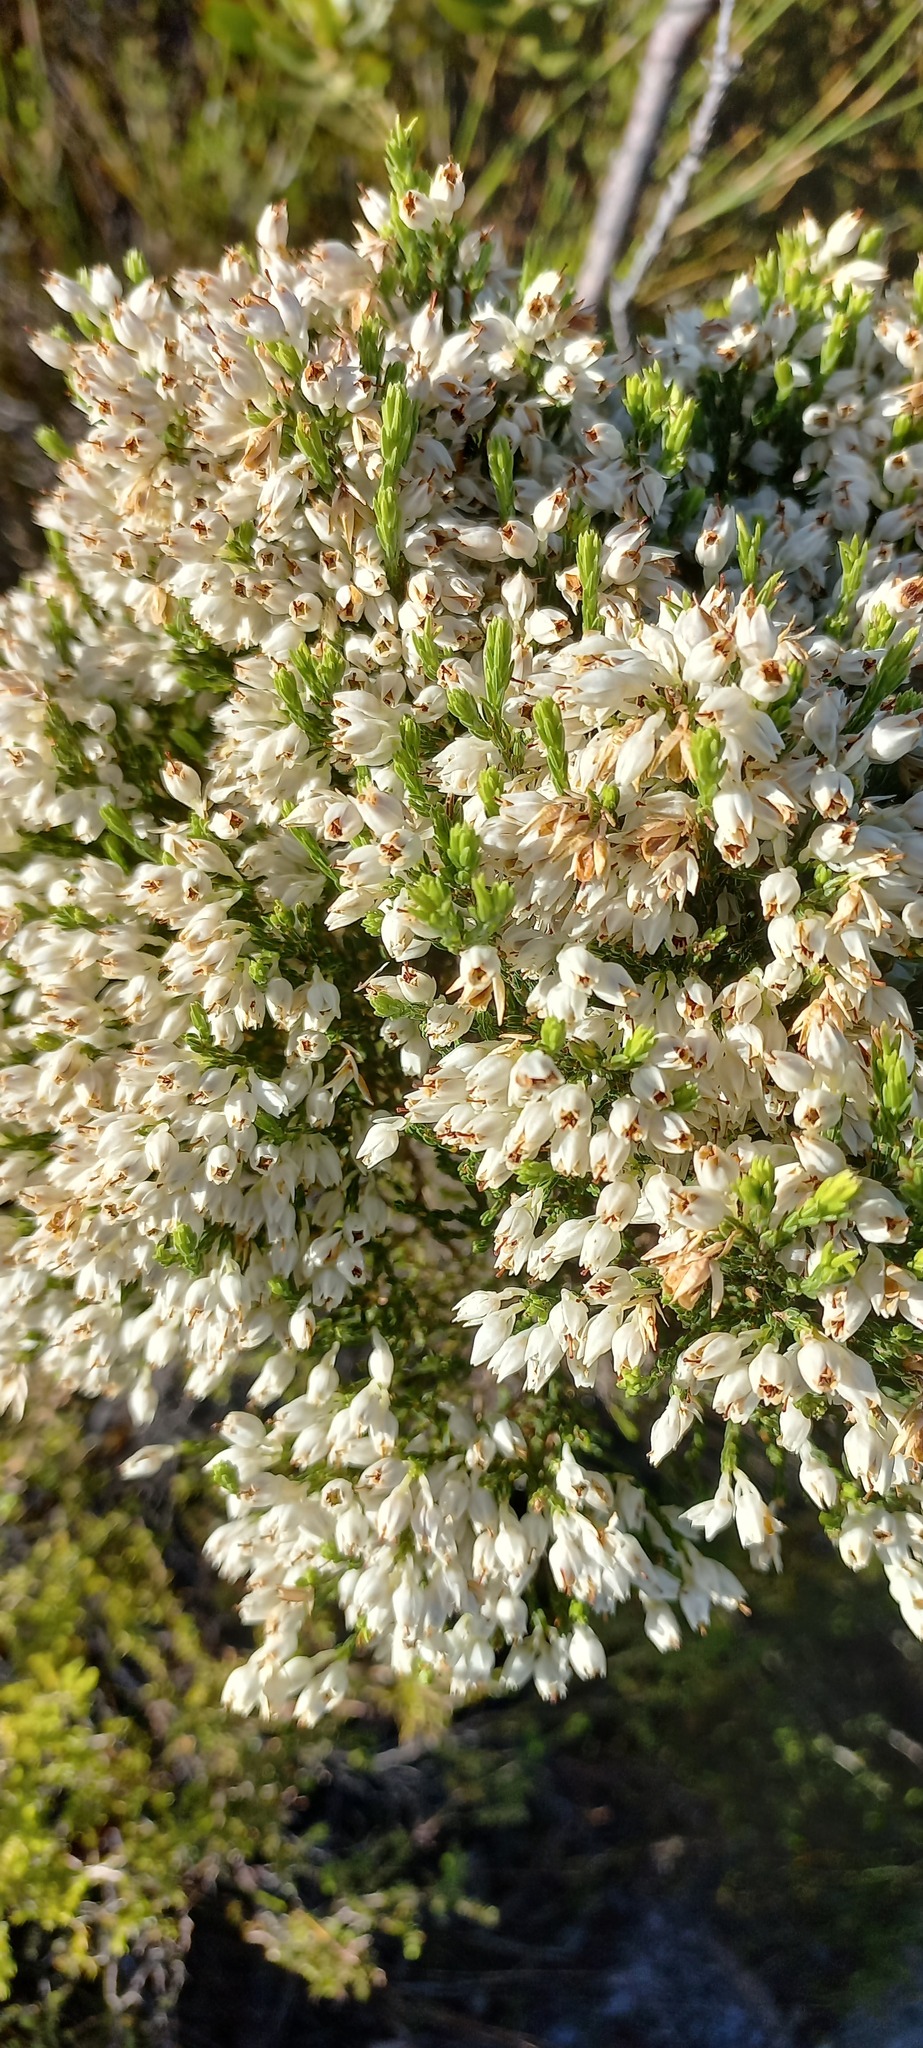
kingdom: Plantae
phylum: Tracheophyta
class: Magnoliopsida
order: Ericales
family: Ericaceae
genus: Erica
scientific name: Erica nivea
